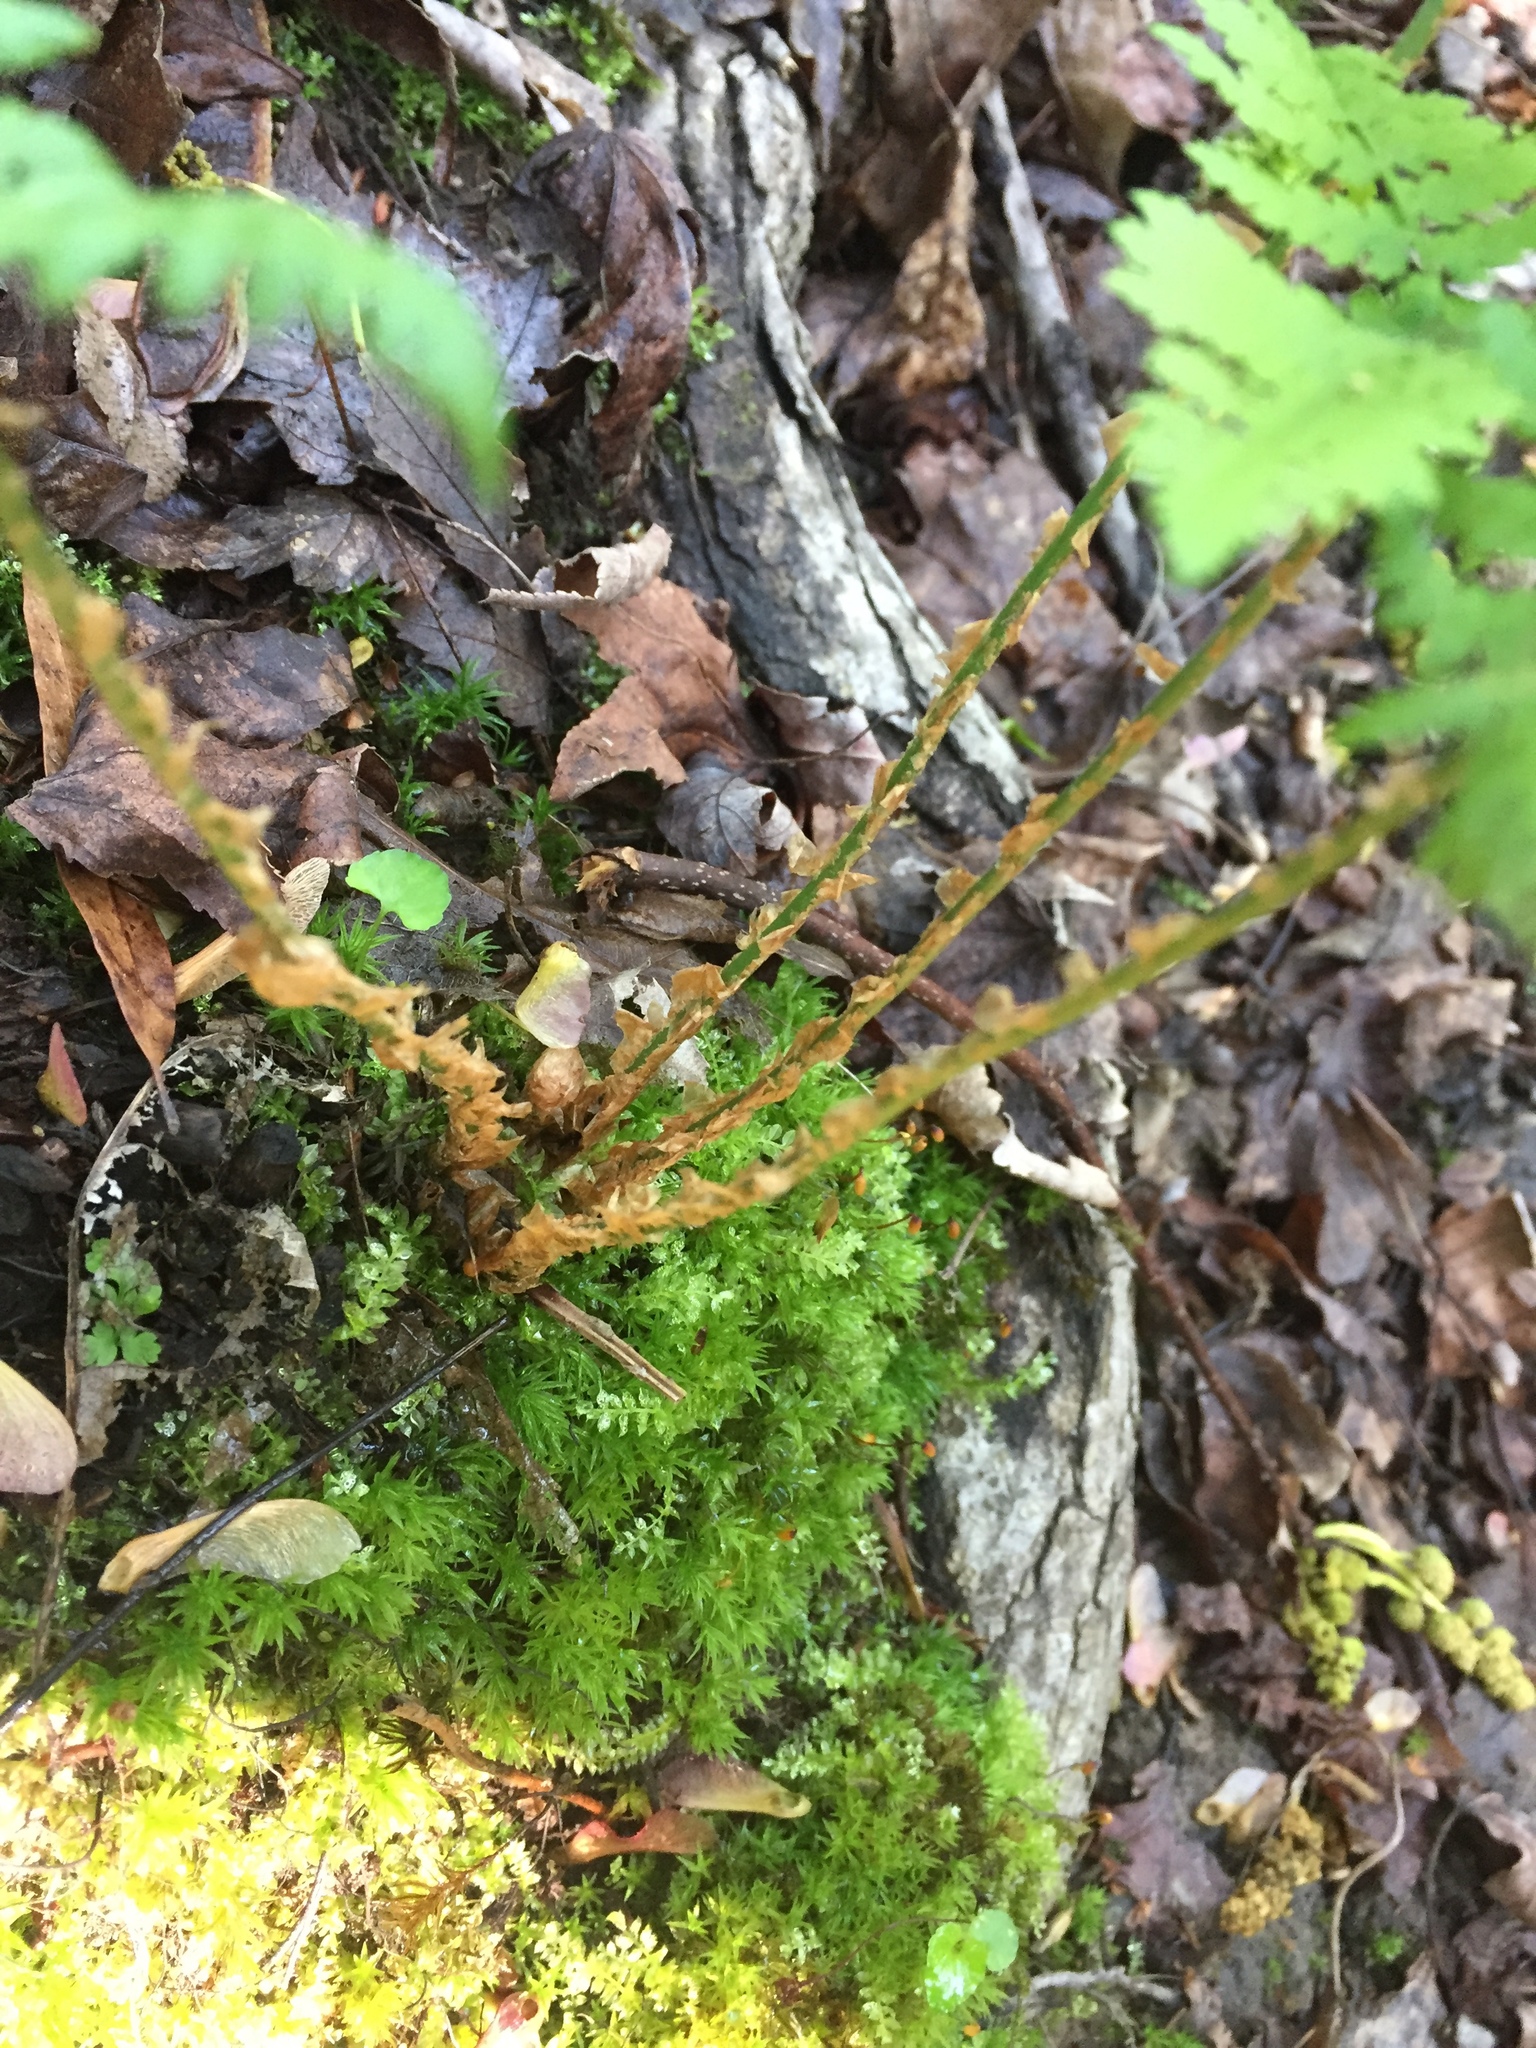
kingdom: Plantae
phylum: Tracheophyta
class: Polypodiopsida
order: Polypodiales
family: Dryopteridaceae
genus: Dryopteris
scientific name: Dryopteris intermedia
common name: Evergreen wood fern
